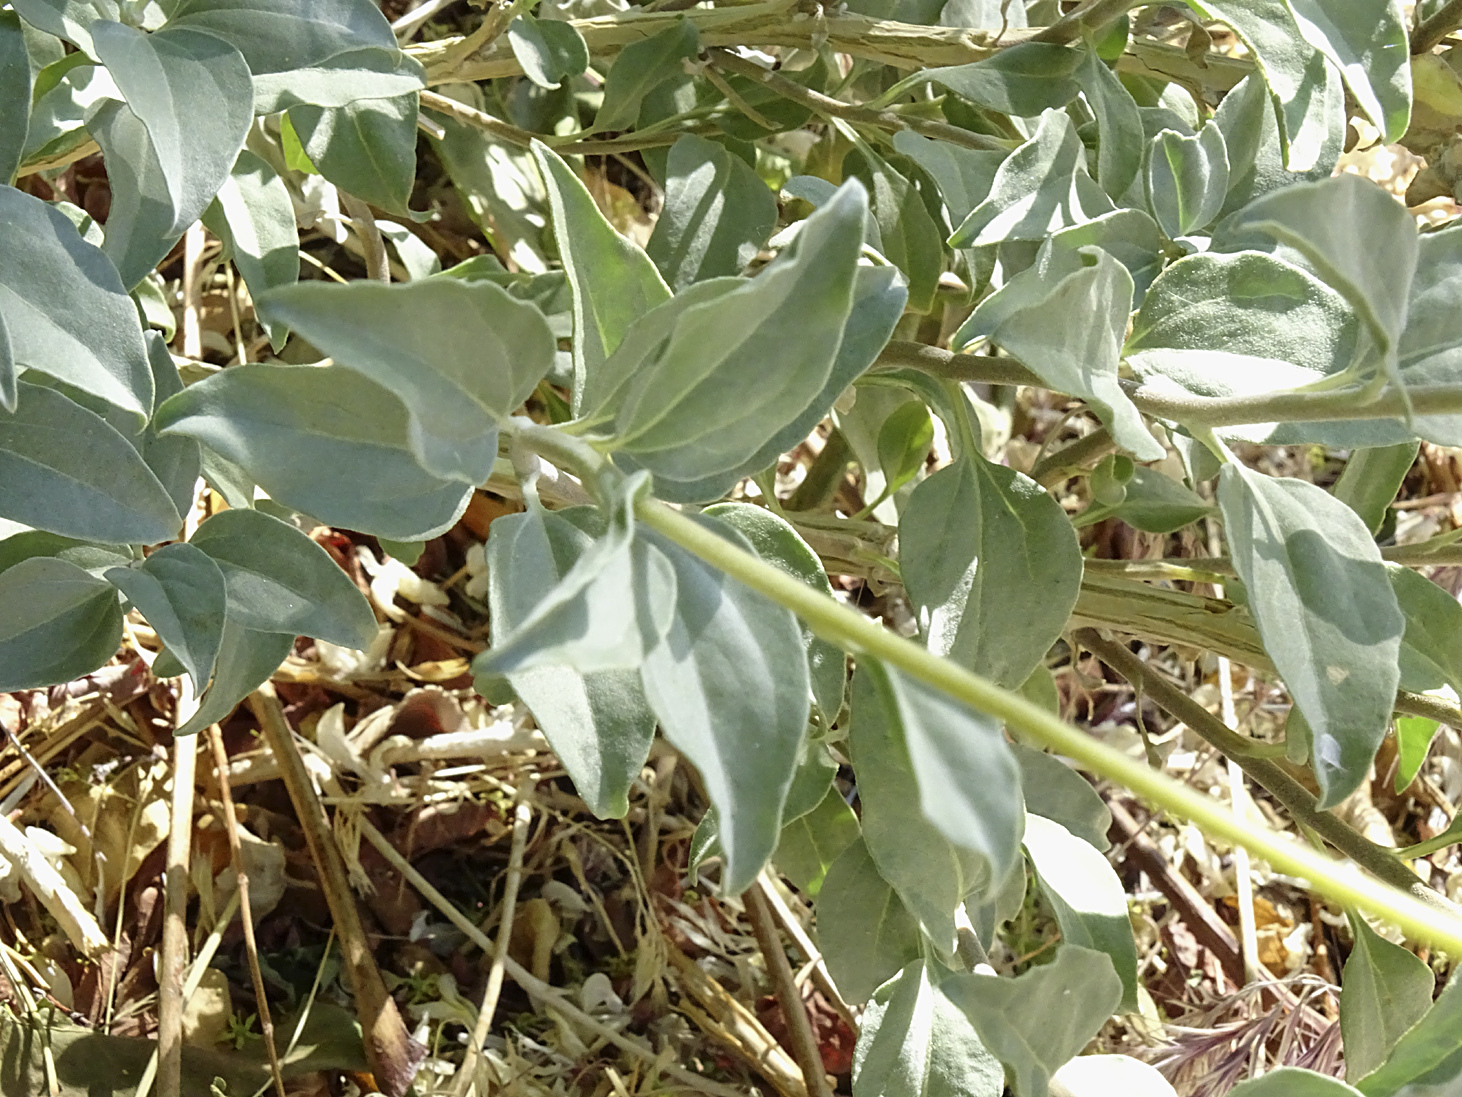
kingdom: Plantae
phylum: Tracheophyta
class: Magnoliopsida
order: Asterales
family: Asteraceae
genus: Encelia
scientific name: Encelia actoni
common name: Acton encelia
